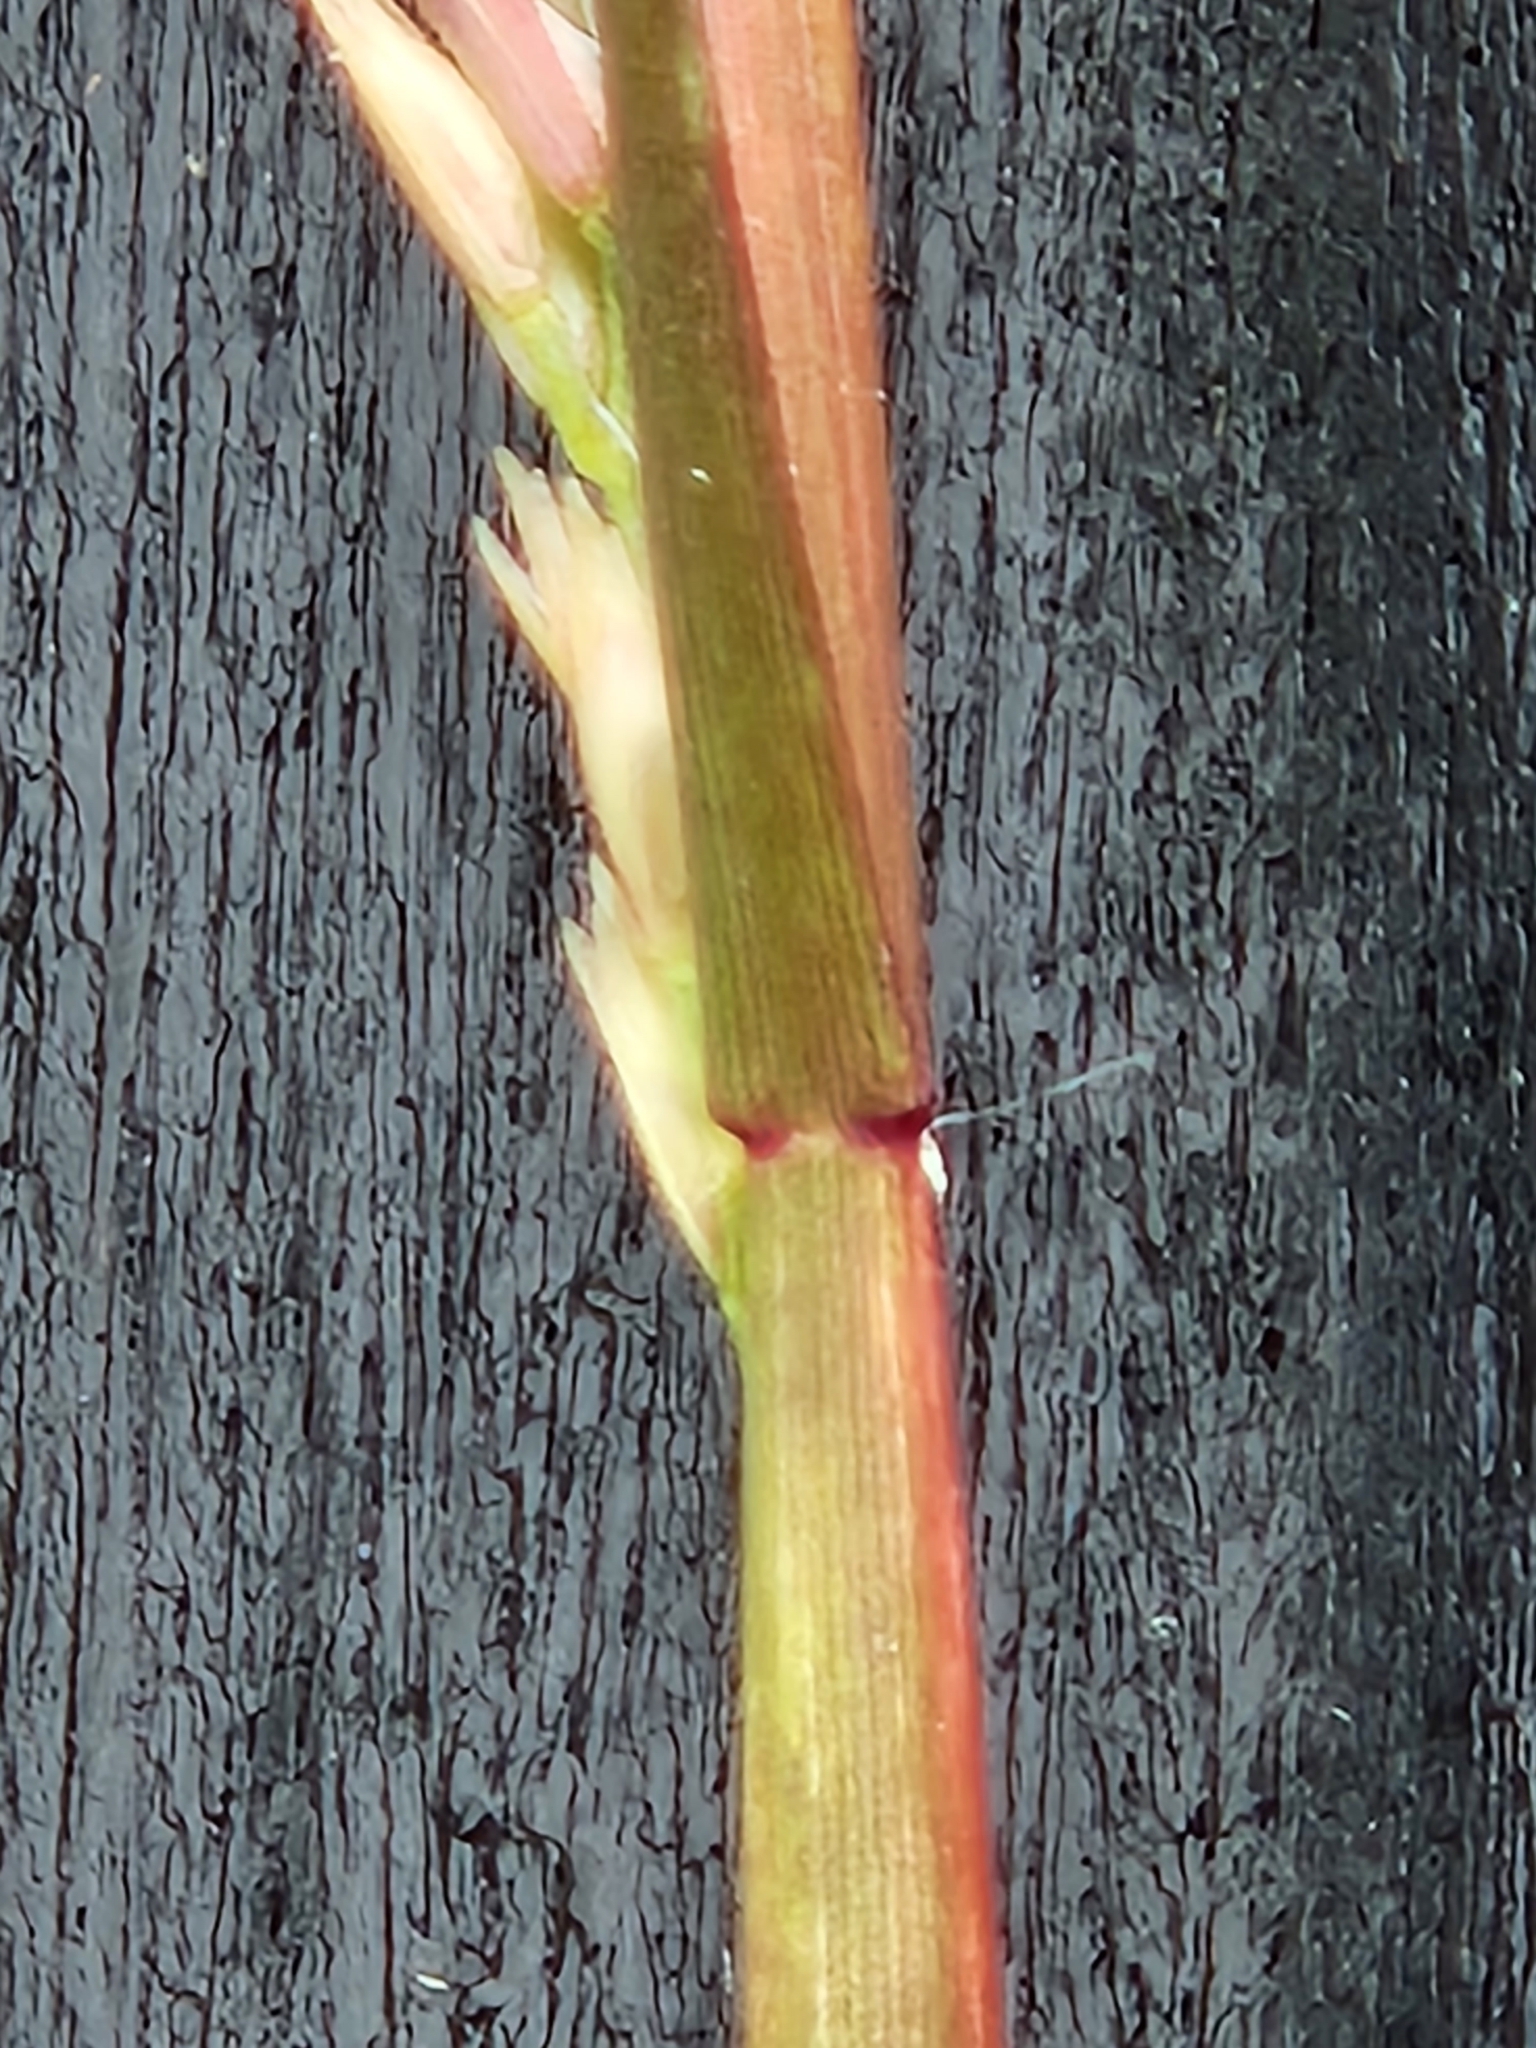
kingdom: Plantae
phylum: Tracheophyta
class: Liliopsida
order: Poales
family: Poaceae
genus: Sporobolus
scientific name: Sporobolus vaginiflorus
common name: Poverty dropseed
